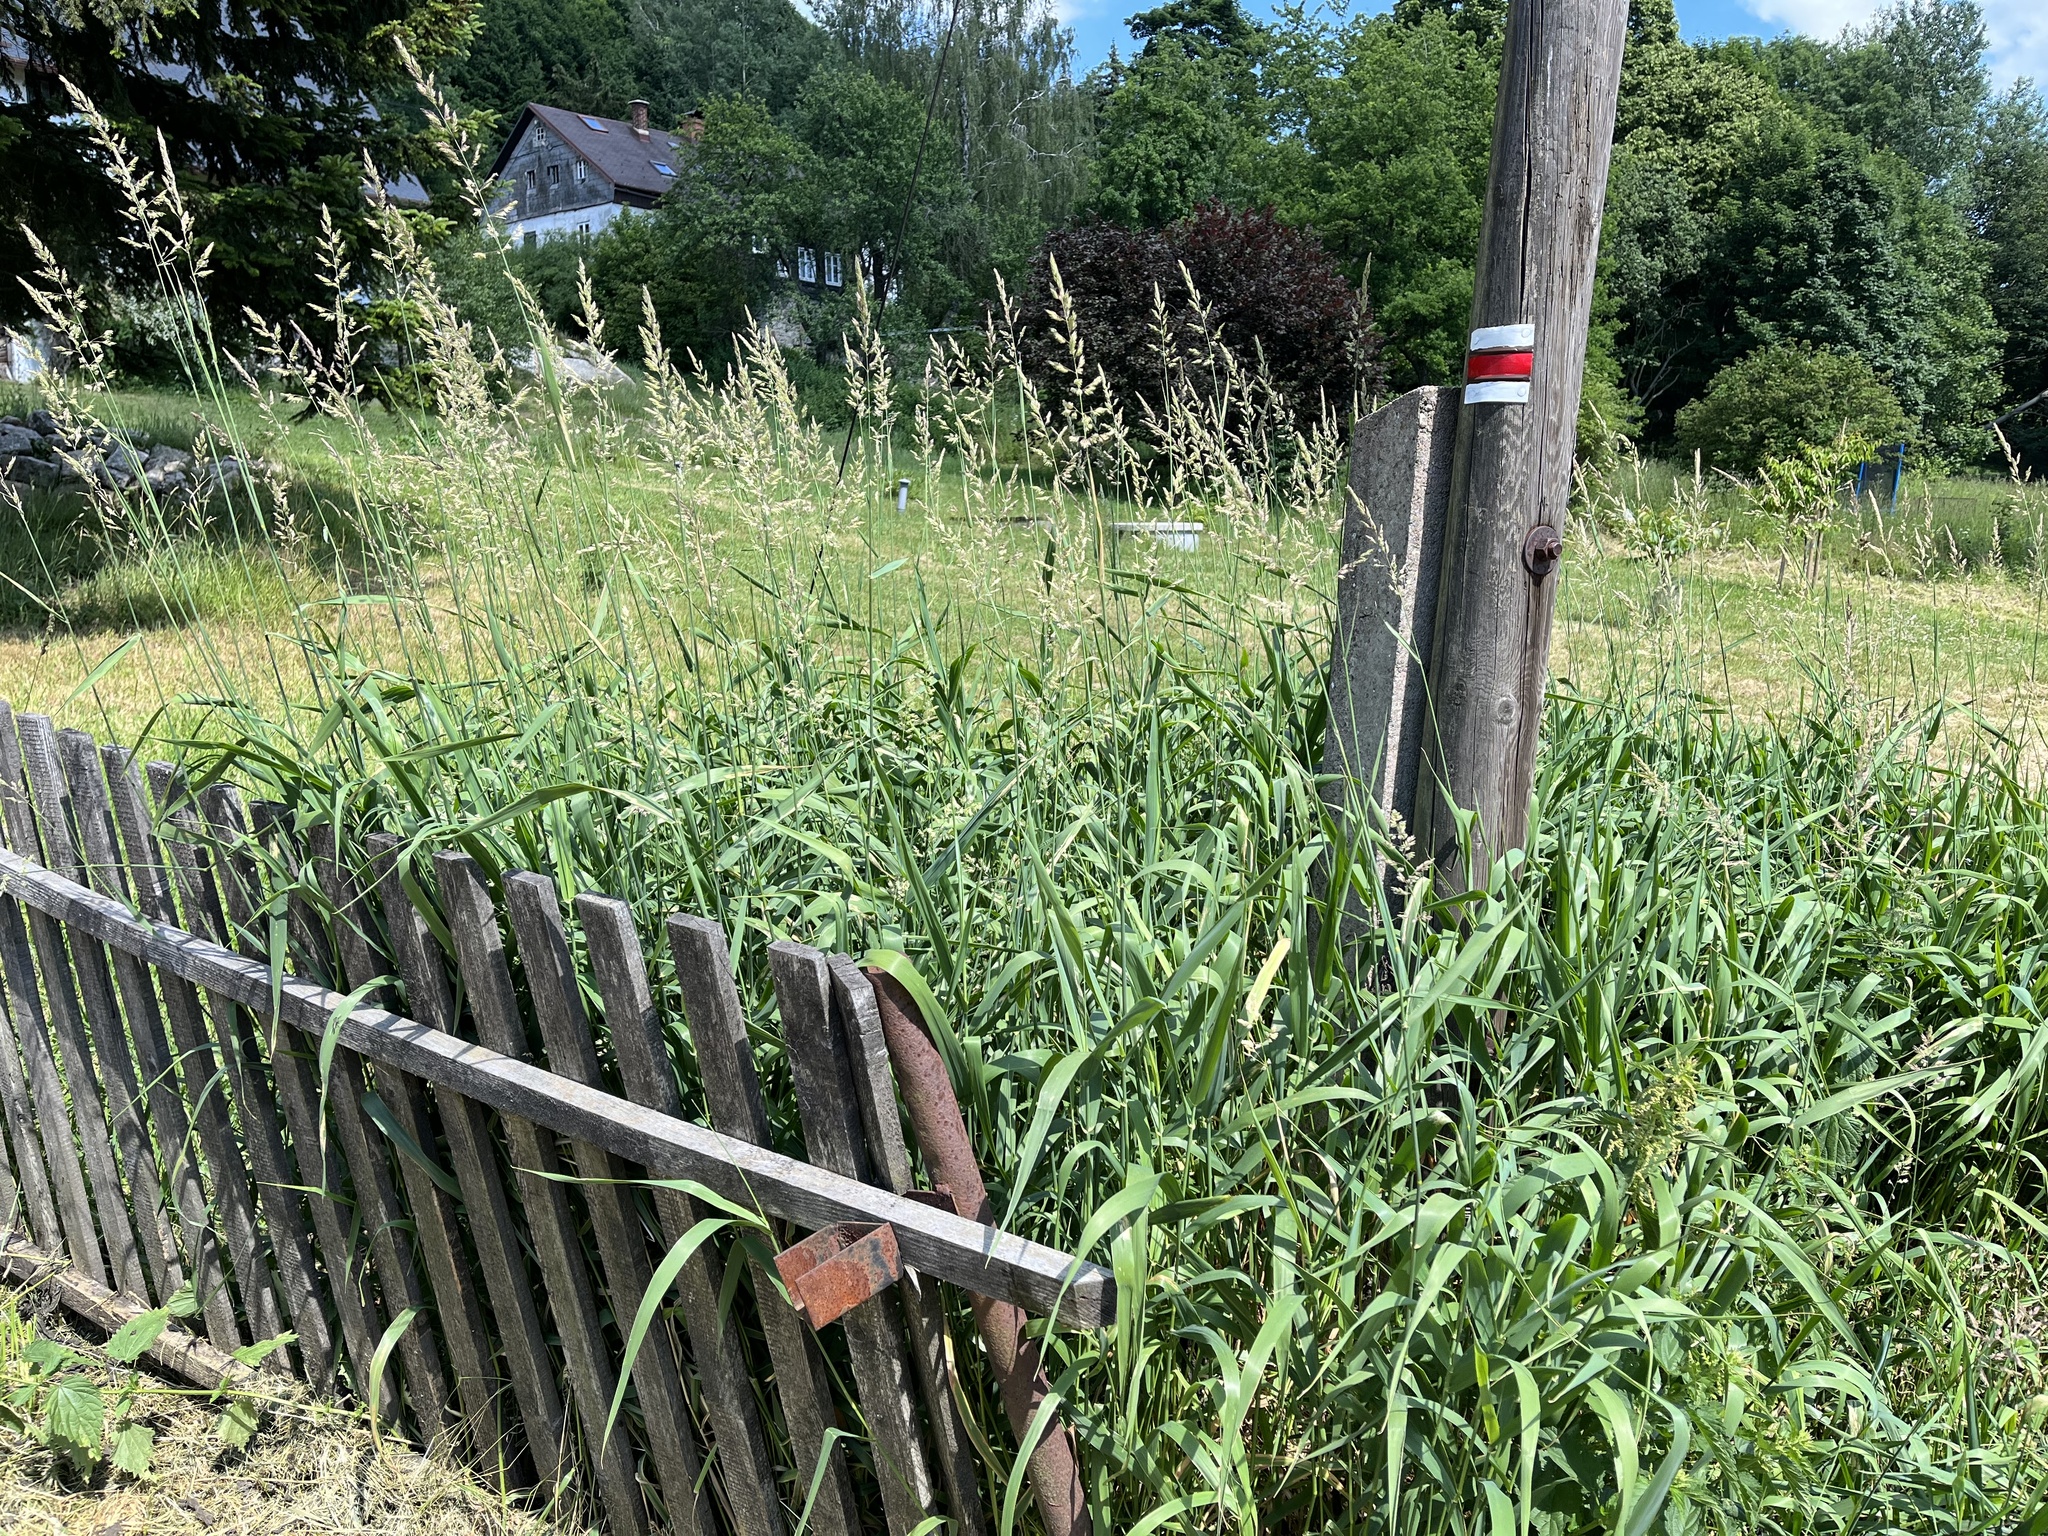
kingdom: Plantae
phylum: Tracheophyta
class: Liliopsida
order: Poales
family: Poaceae
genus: Phalaris
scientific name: Phalaris arundinacea
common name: Reed canary-grass
